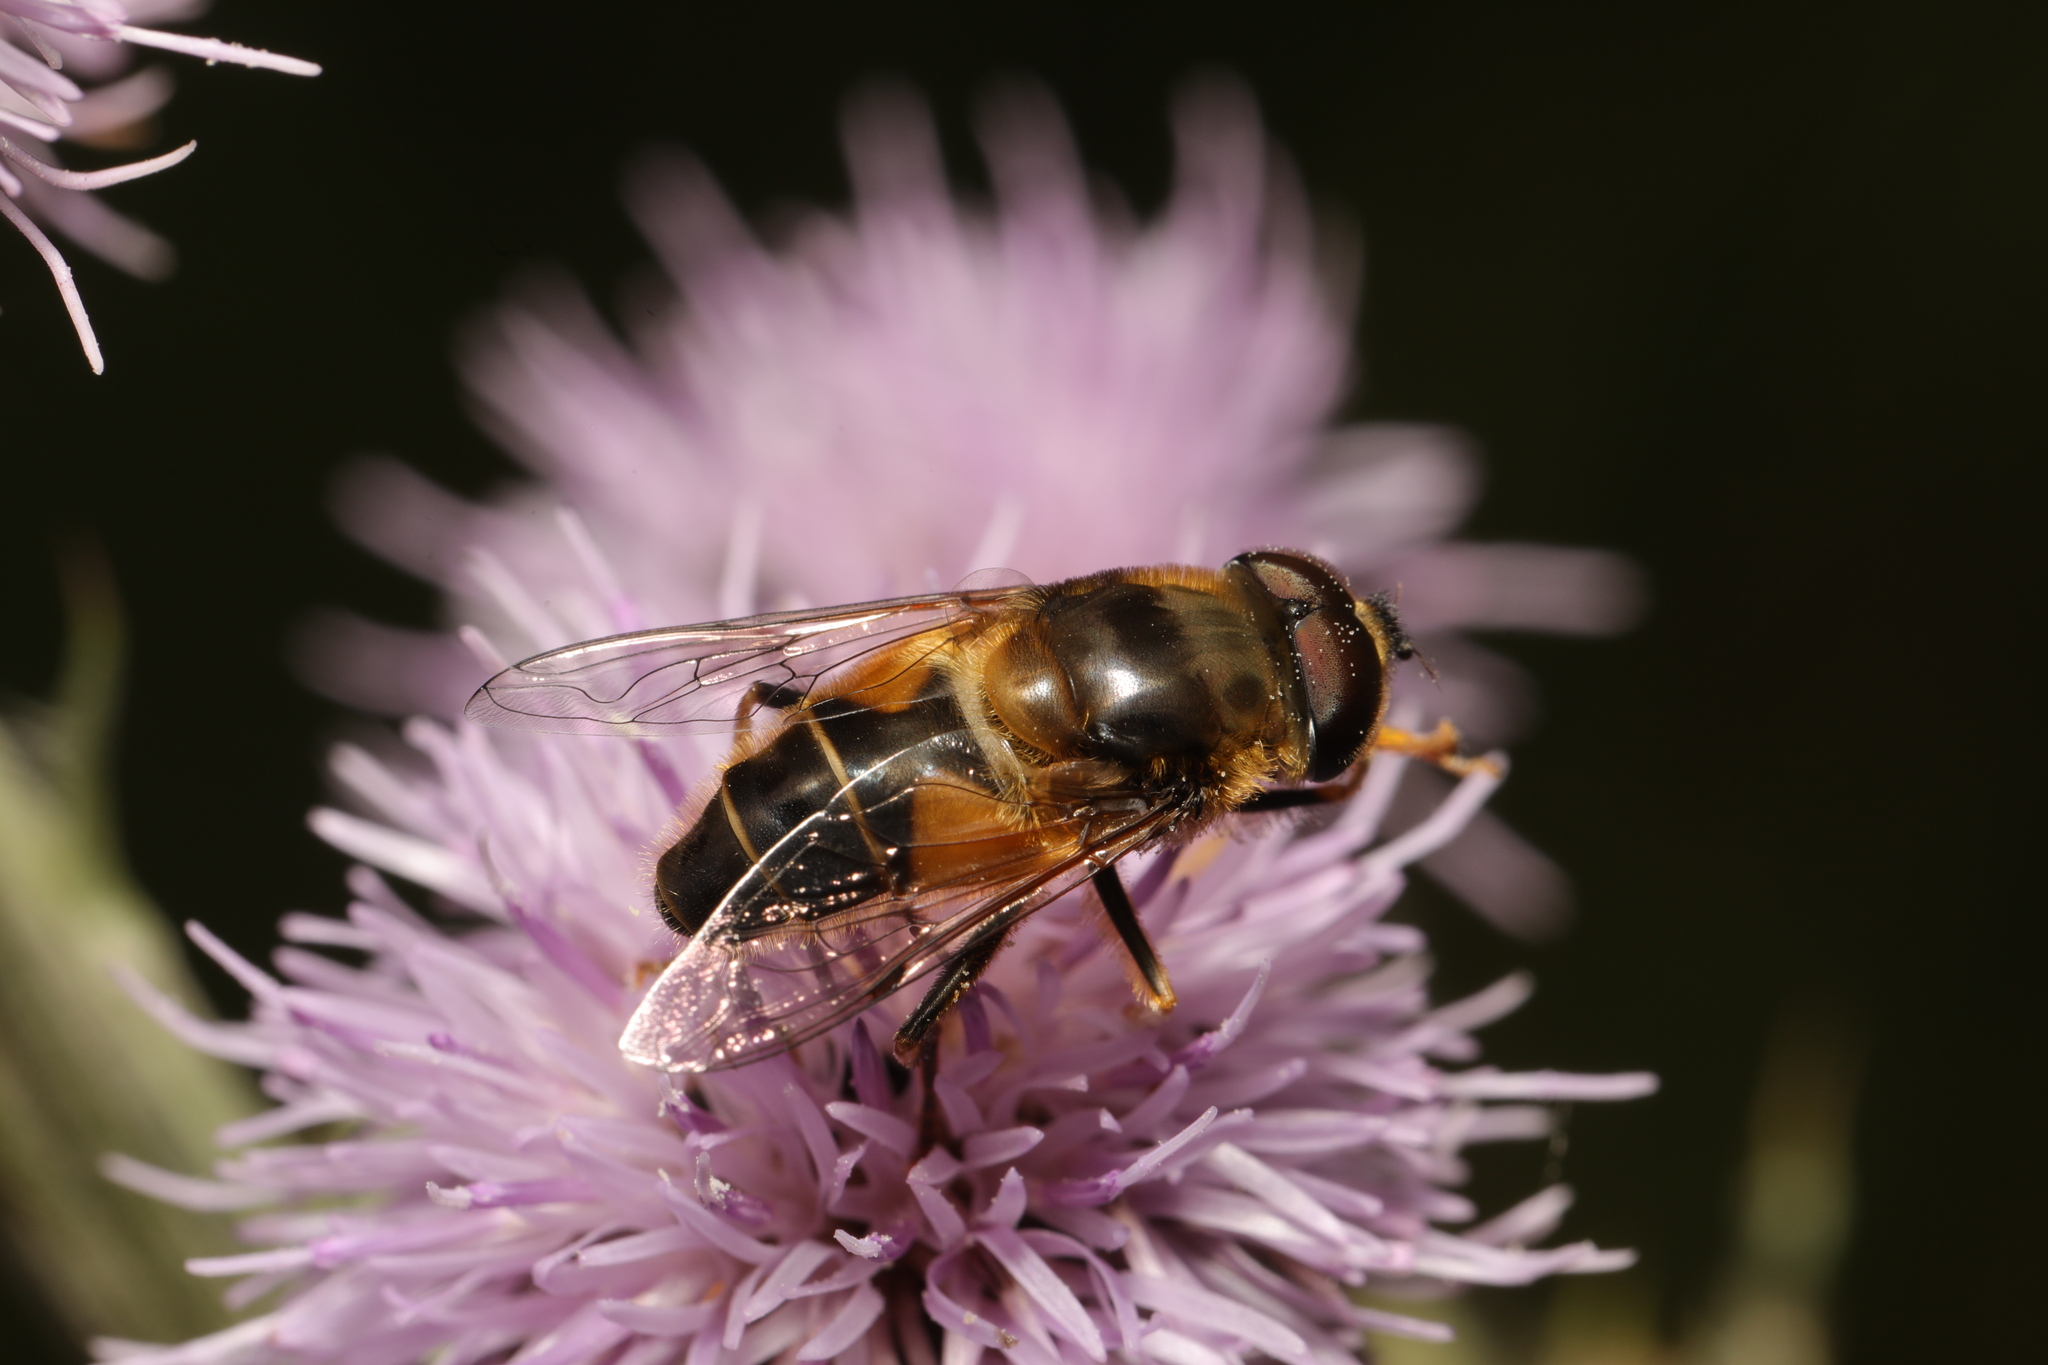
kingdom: Animalia
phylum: Arthropoda
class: Insecta
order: Diptera
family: Syrphidae
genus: Eristalis
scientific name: Eristalis pertinax
